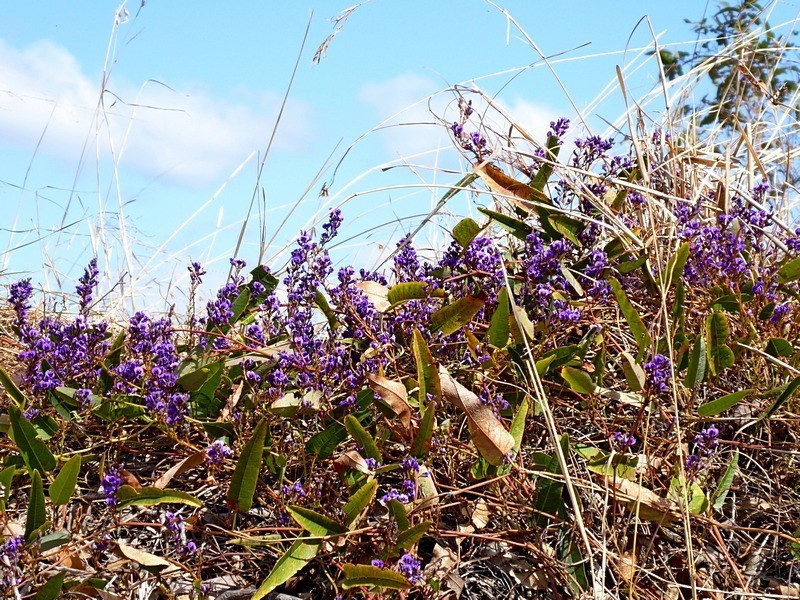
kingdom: Plantae
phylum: Tracheophyta
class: Magnoliopsida
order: Fabales
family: Fabaceae
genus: Hardenbergia
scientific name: Hardenbergia violacea
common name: Coral-pea
